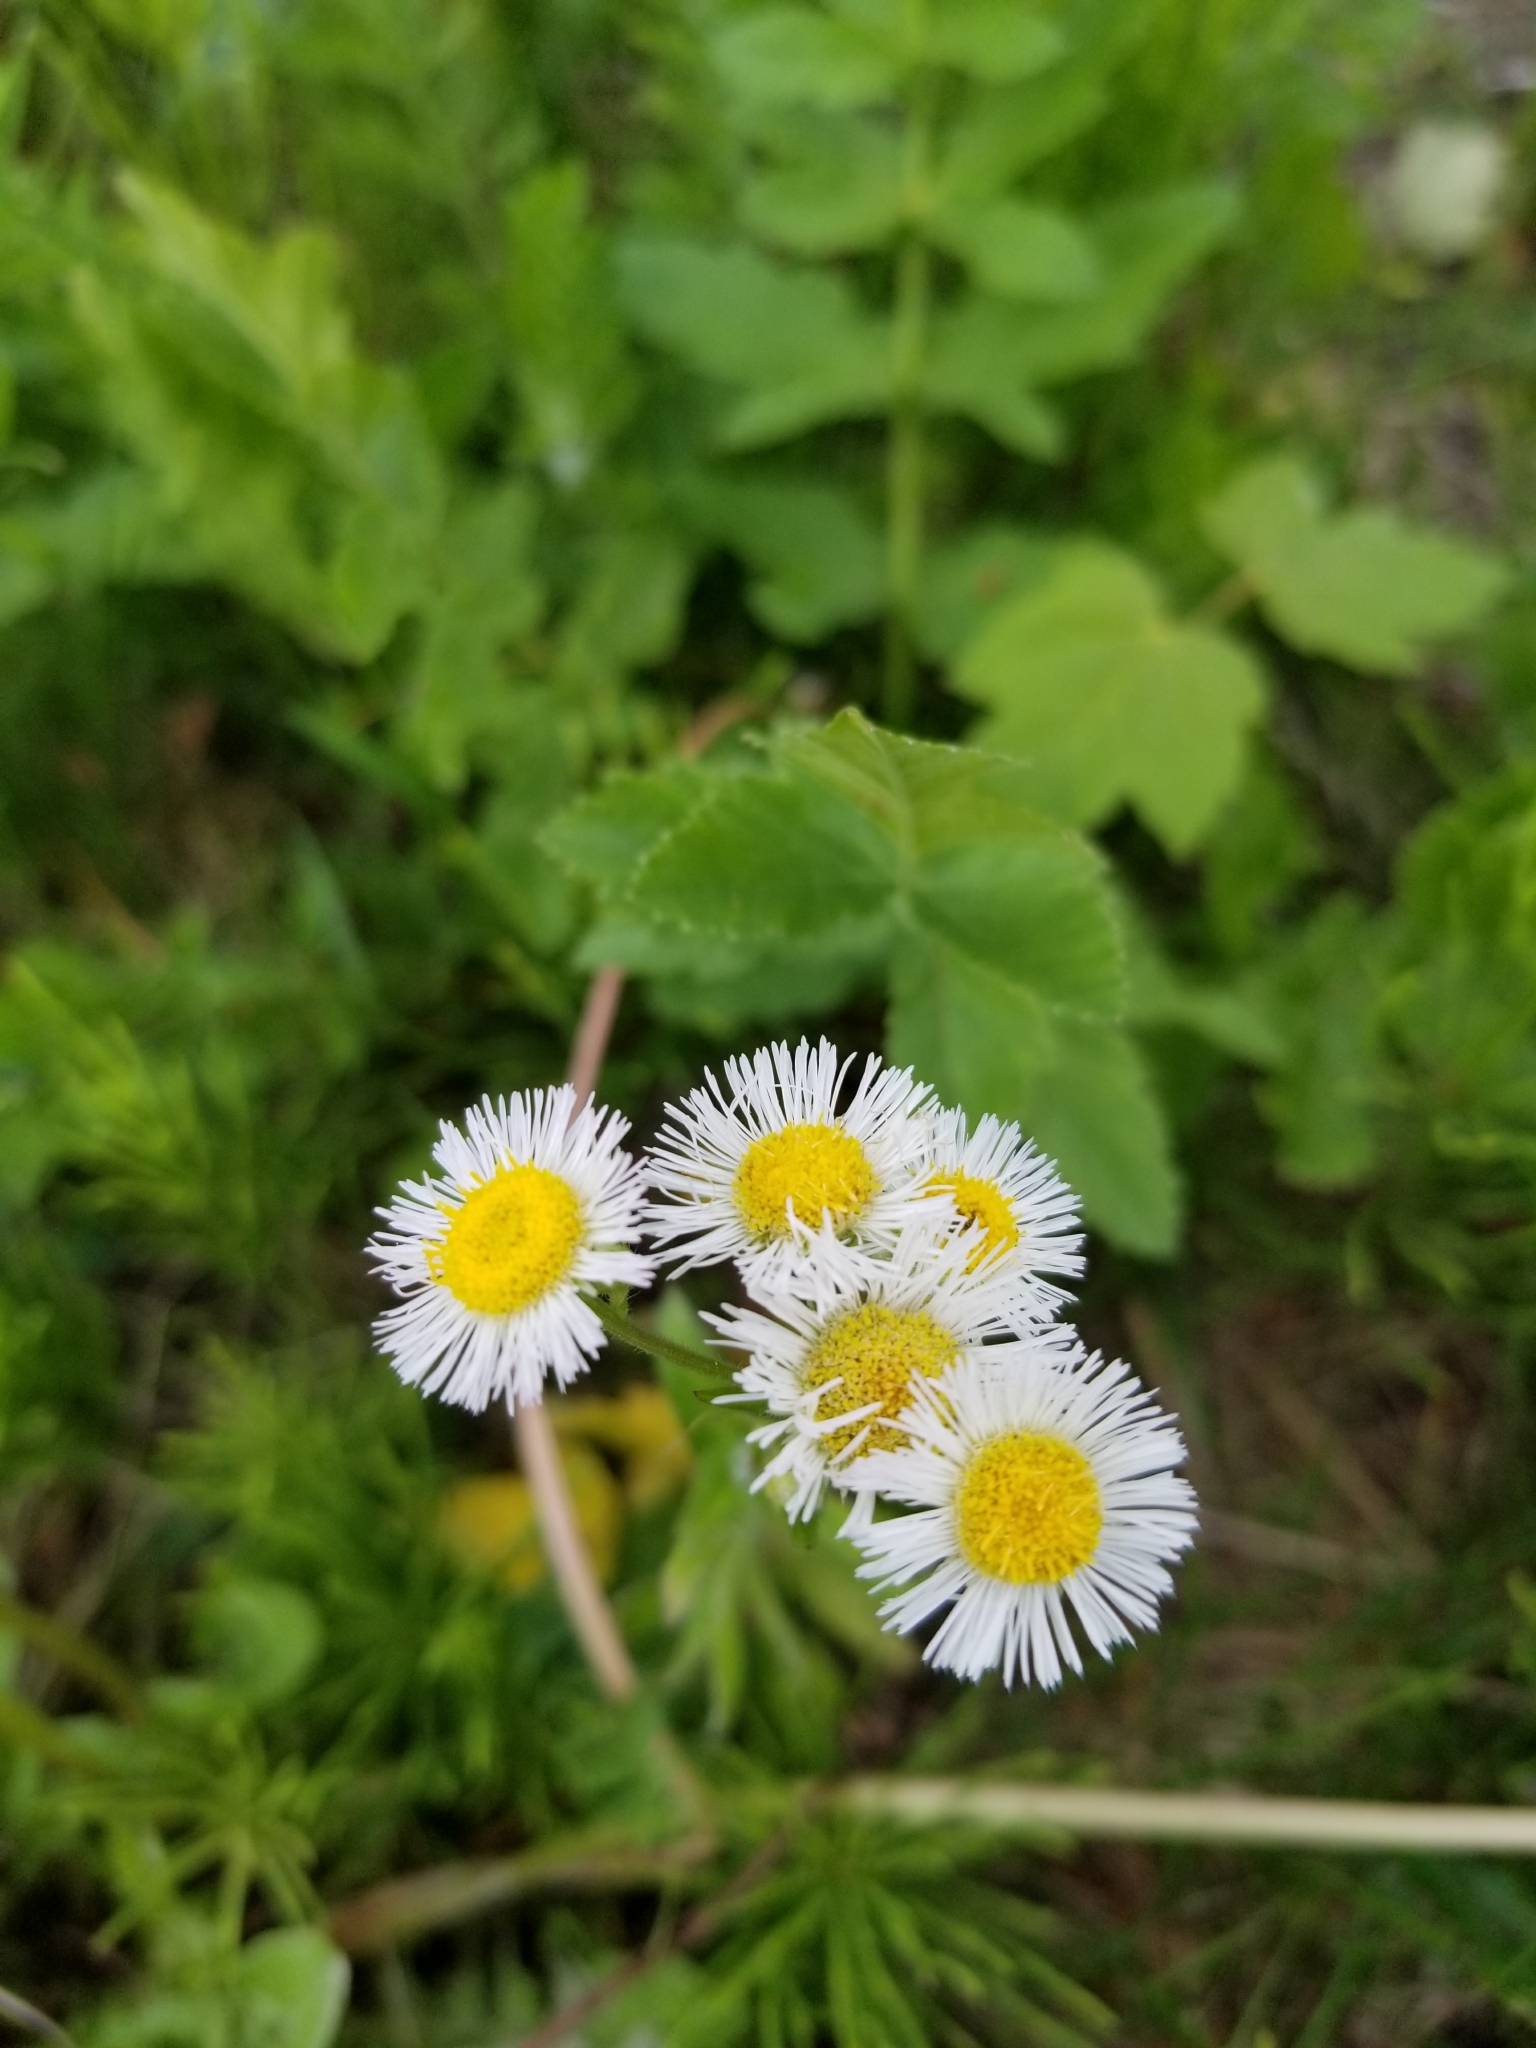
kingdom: Plantae
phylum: Tracheophyta
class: Magnoliopsida
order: Asterales
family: Asteraceae
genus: Erigeron
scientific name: Erigeron
